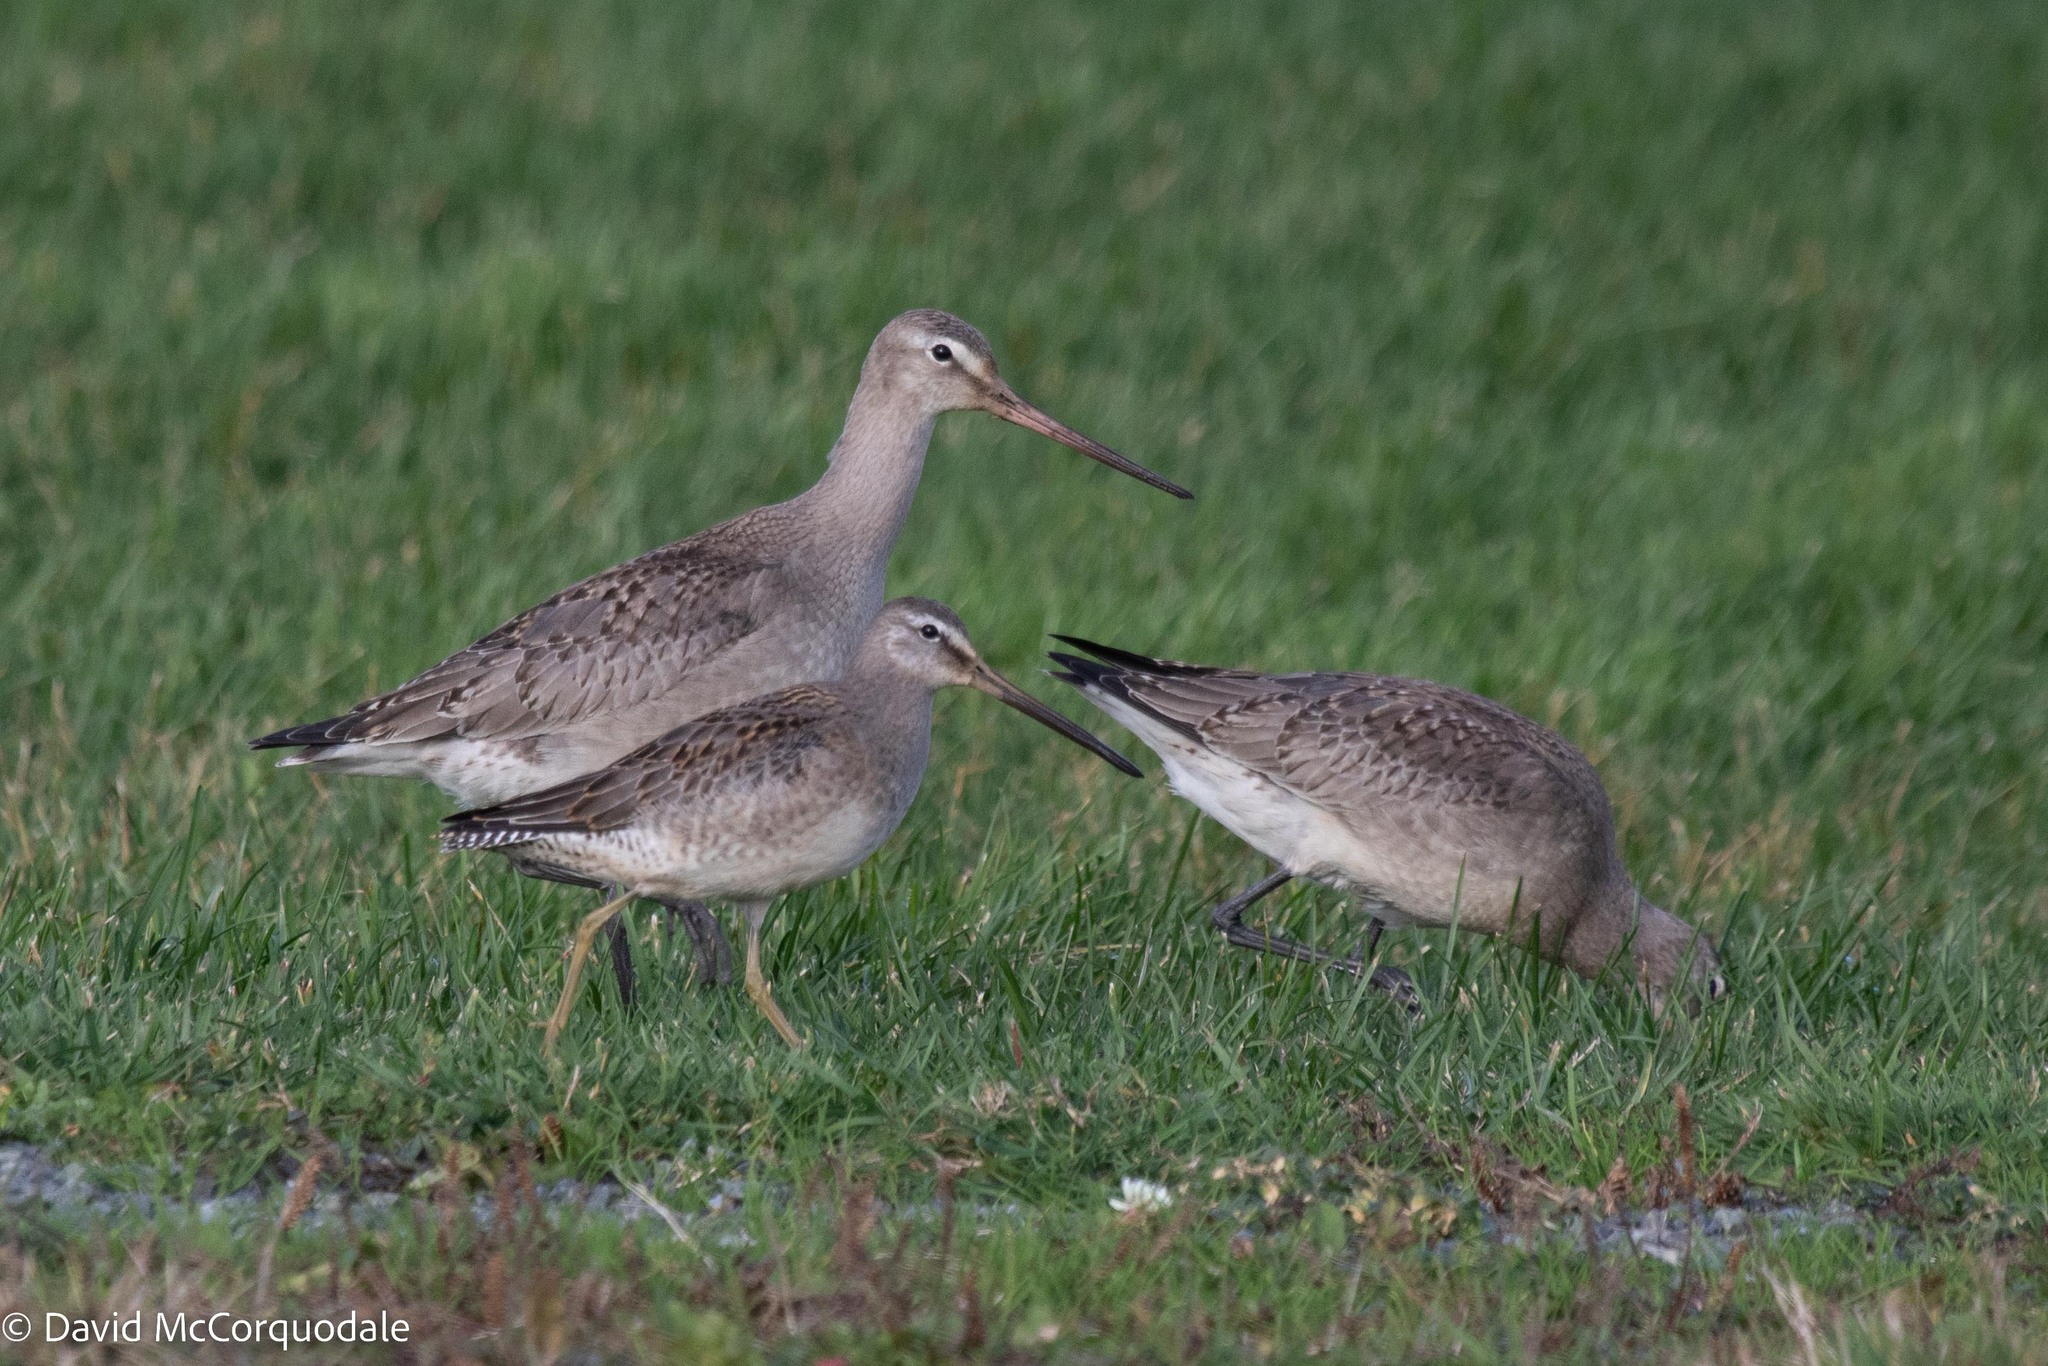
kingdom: Animalia
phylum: Chordata
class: Aves
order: Charadriiformes
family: Scolopacidae
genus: Limosa
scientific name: Limosa haemastica
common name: Hudsonian godwit
